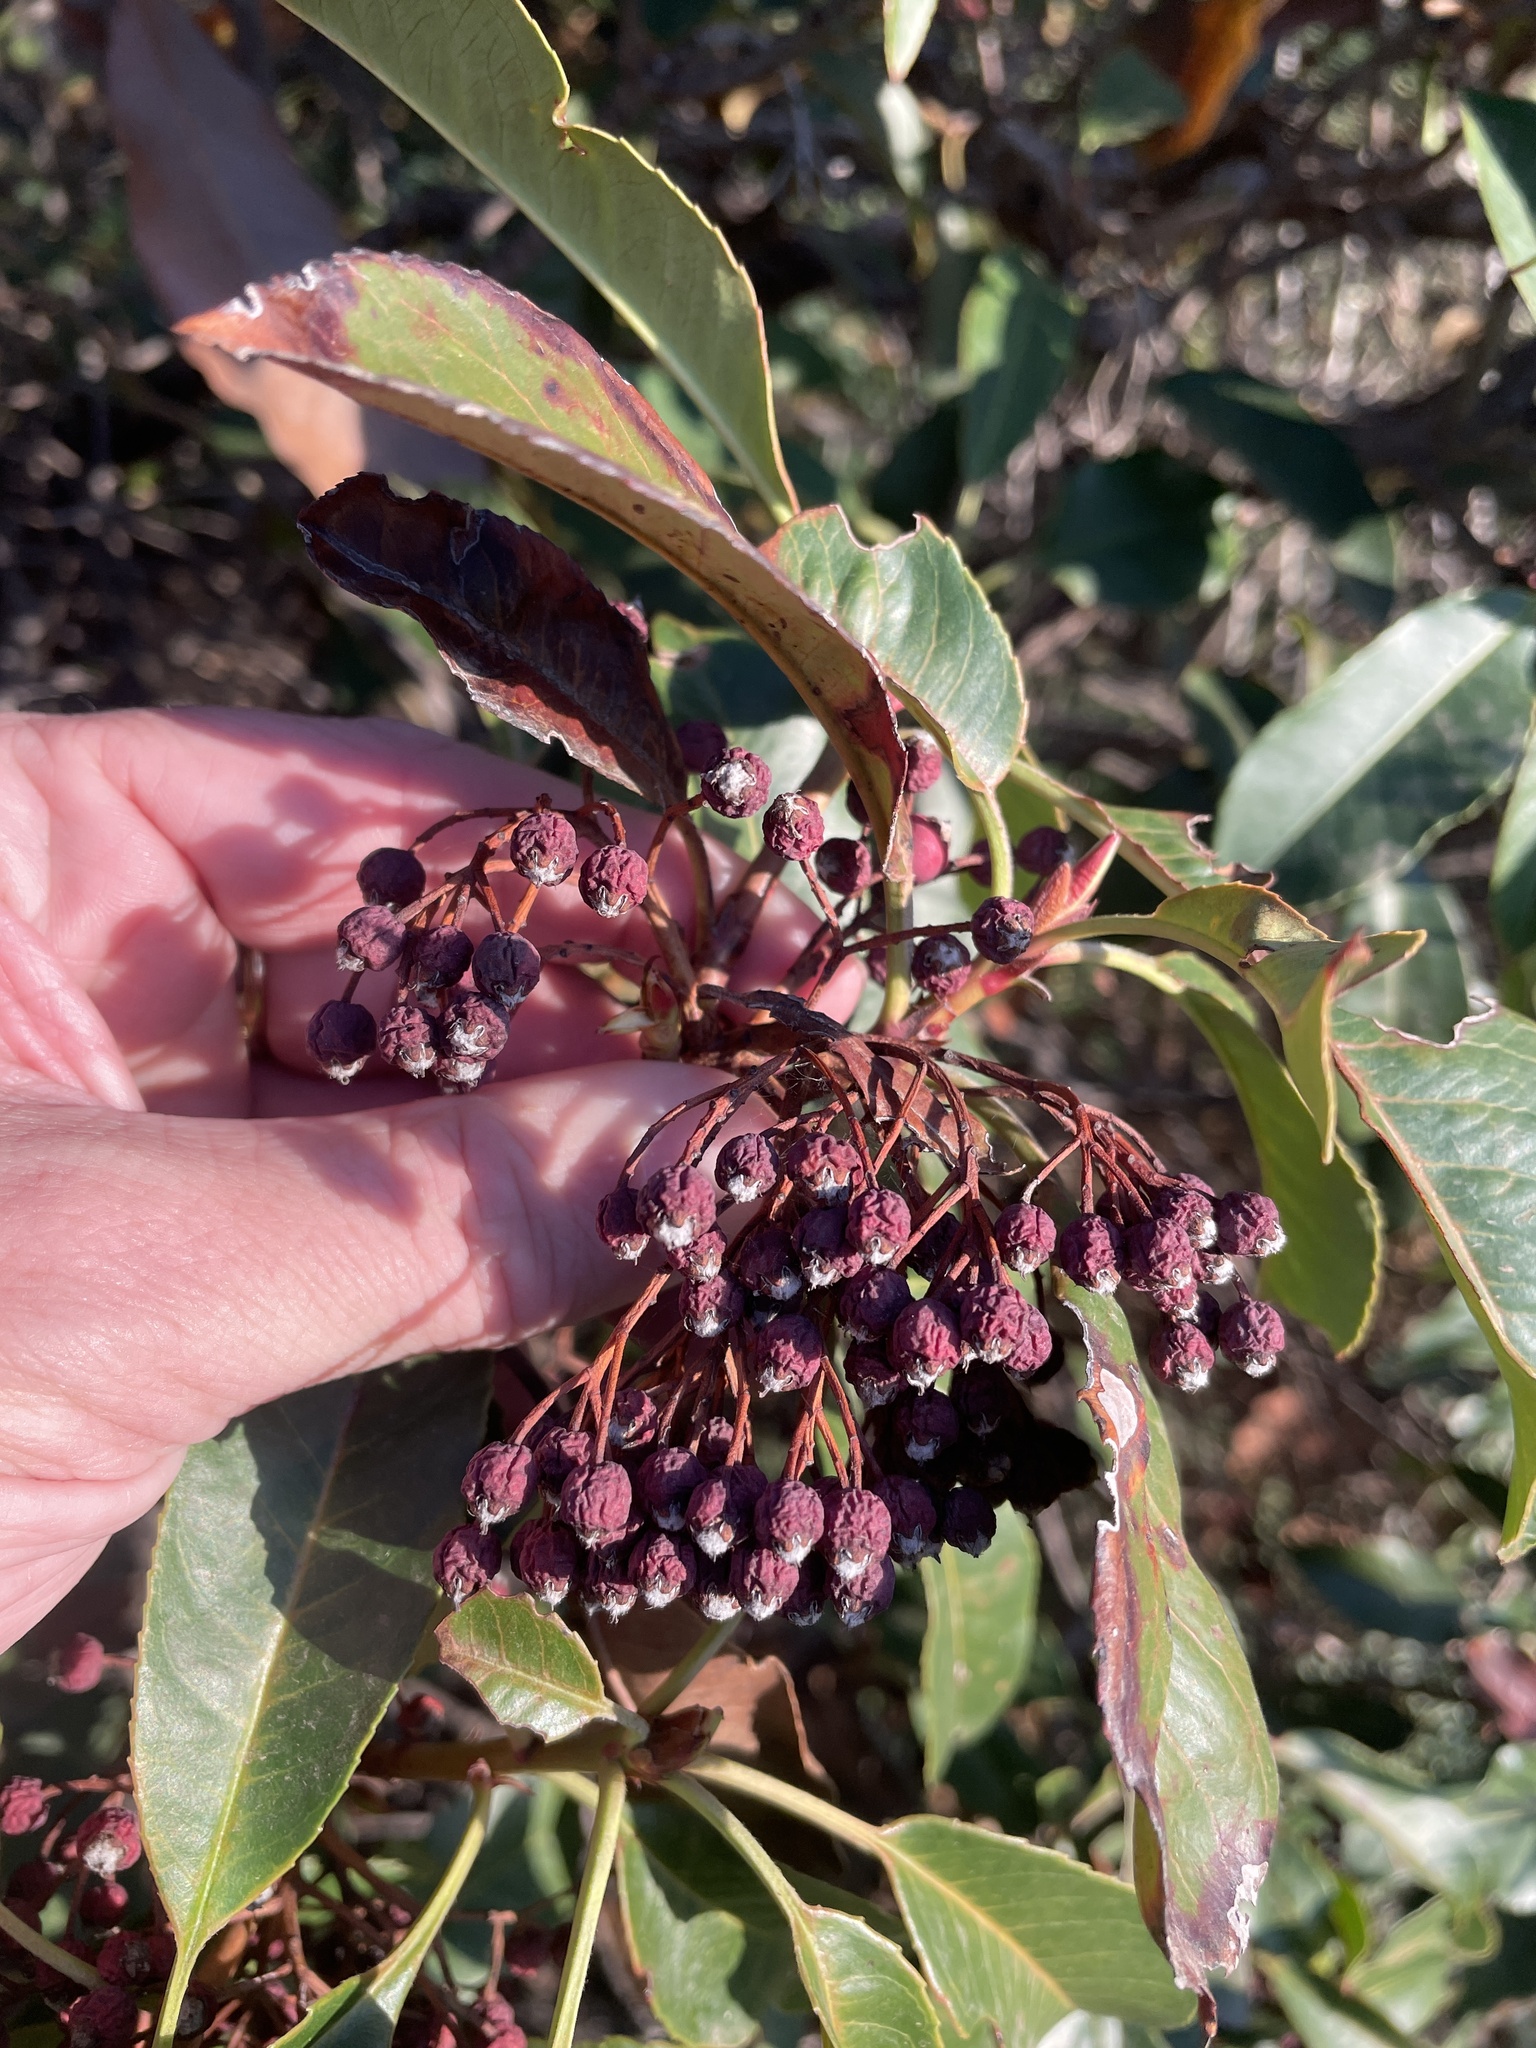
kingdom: Plantae
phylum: Tracheophyta
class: Magnoliopsida
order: Rosales
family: Rosaceae
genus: Photinia
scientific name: Photinia serratifolia
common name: Taiwanese photinia
